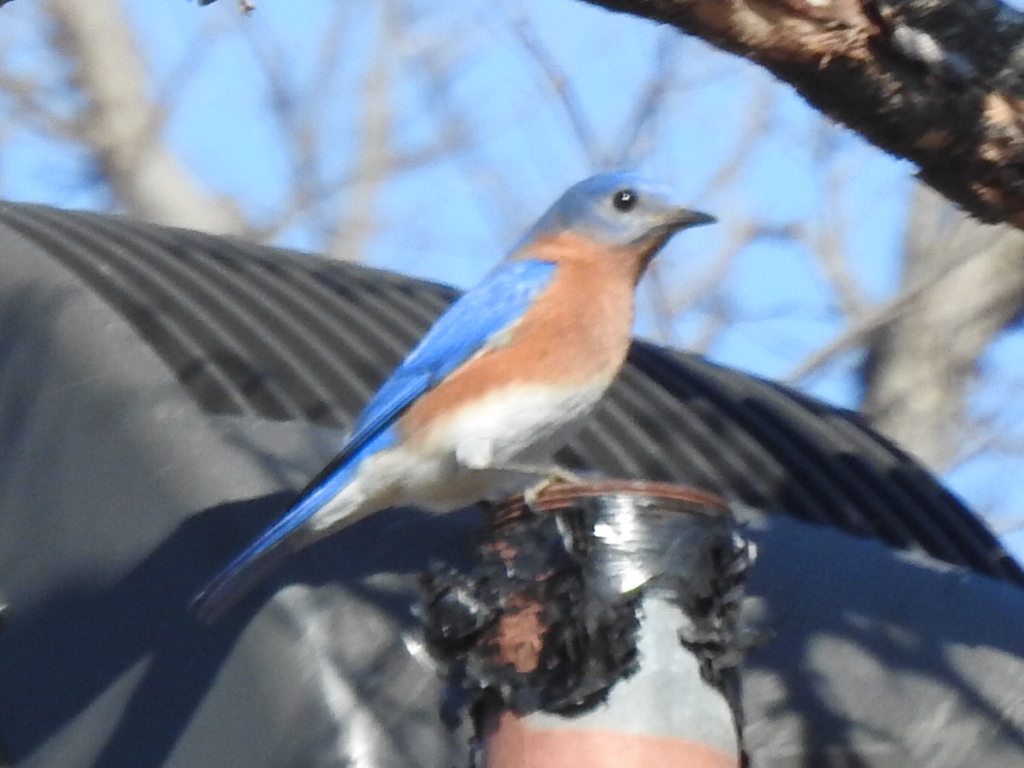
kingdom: Animalia
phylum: Chordata
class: Aves
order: Passeriformes
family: Turdidae
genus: Sialia
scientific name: Sialia sialis
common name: Eastern bluebird
